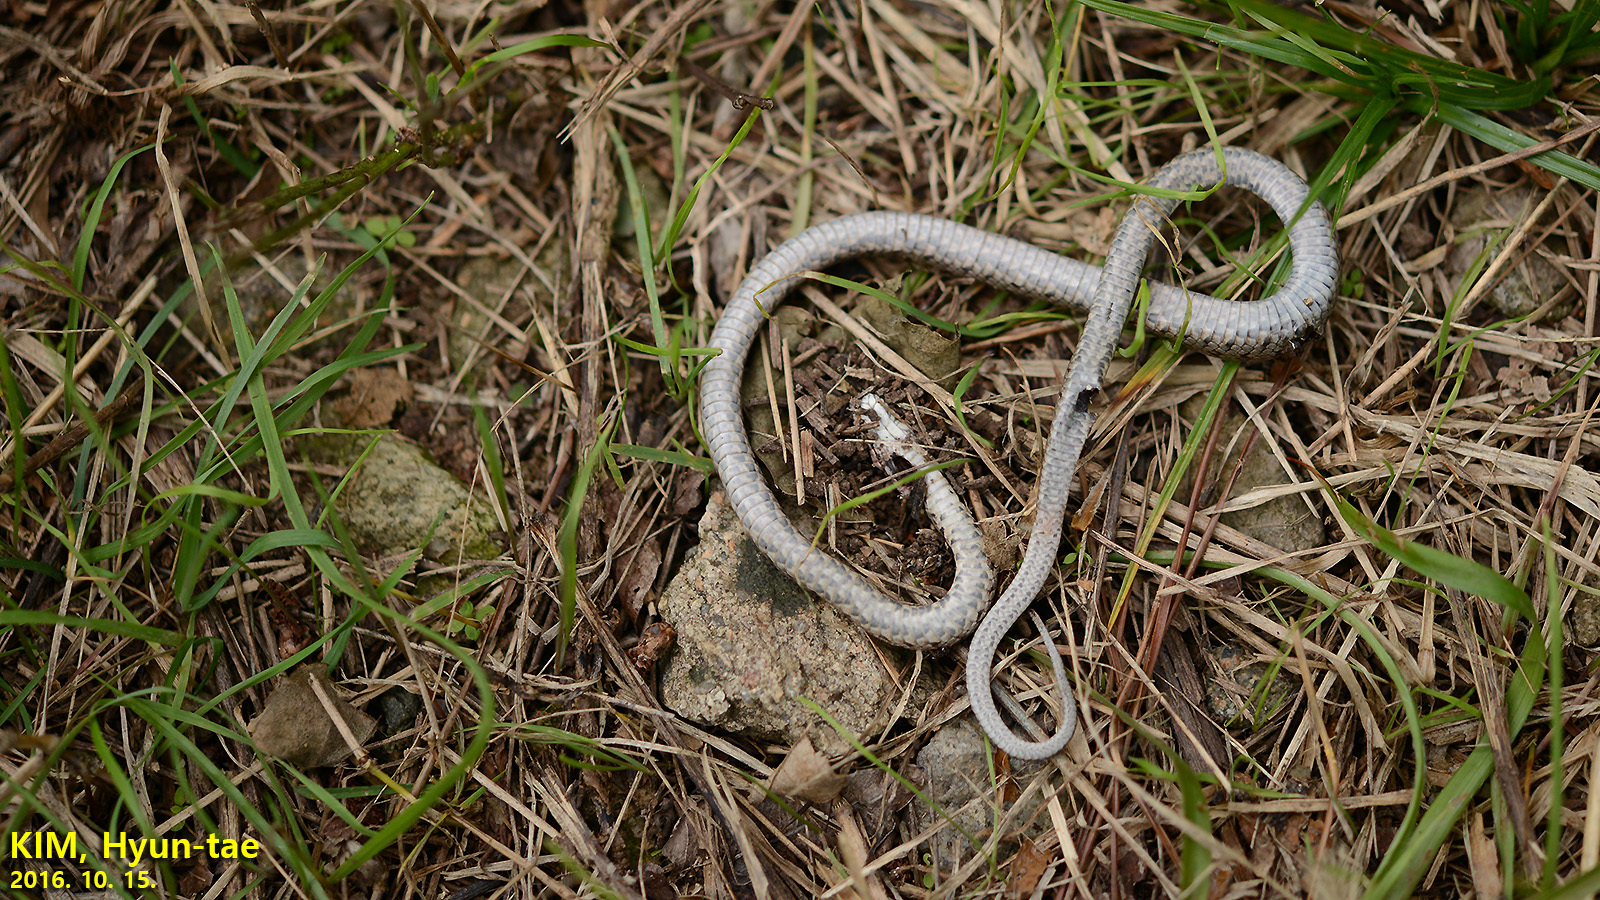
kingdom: Animalia
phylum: Chordata
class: Squamata
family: Colubridae
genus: Elaphe
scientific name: Elaphe dione
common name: Dione ratsnake
